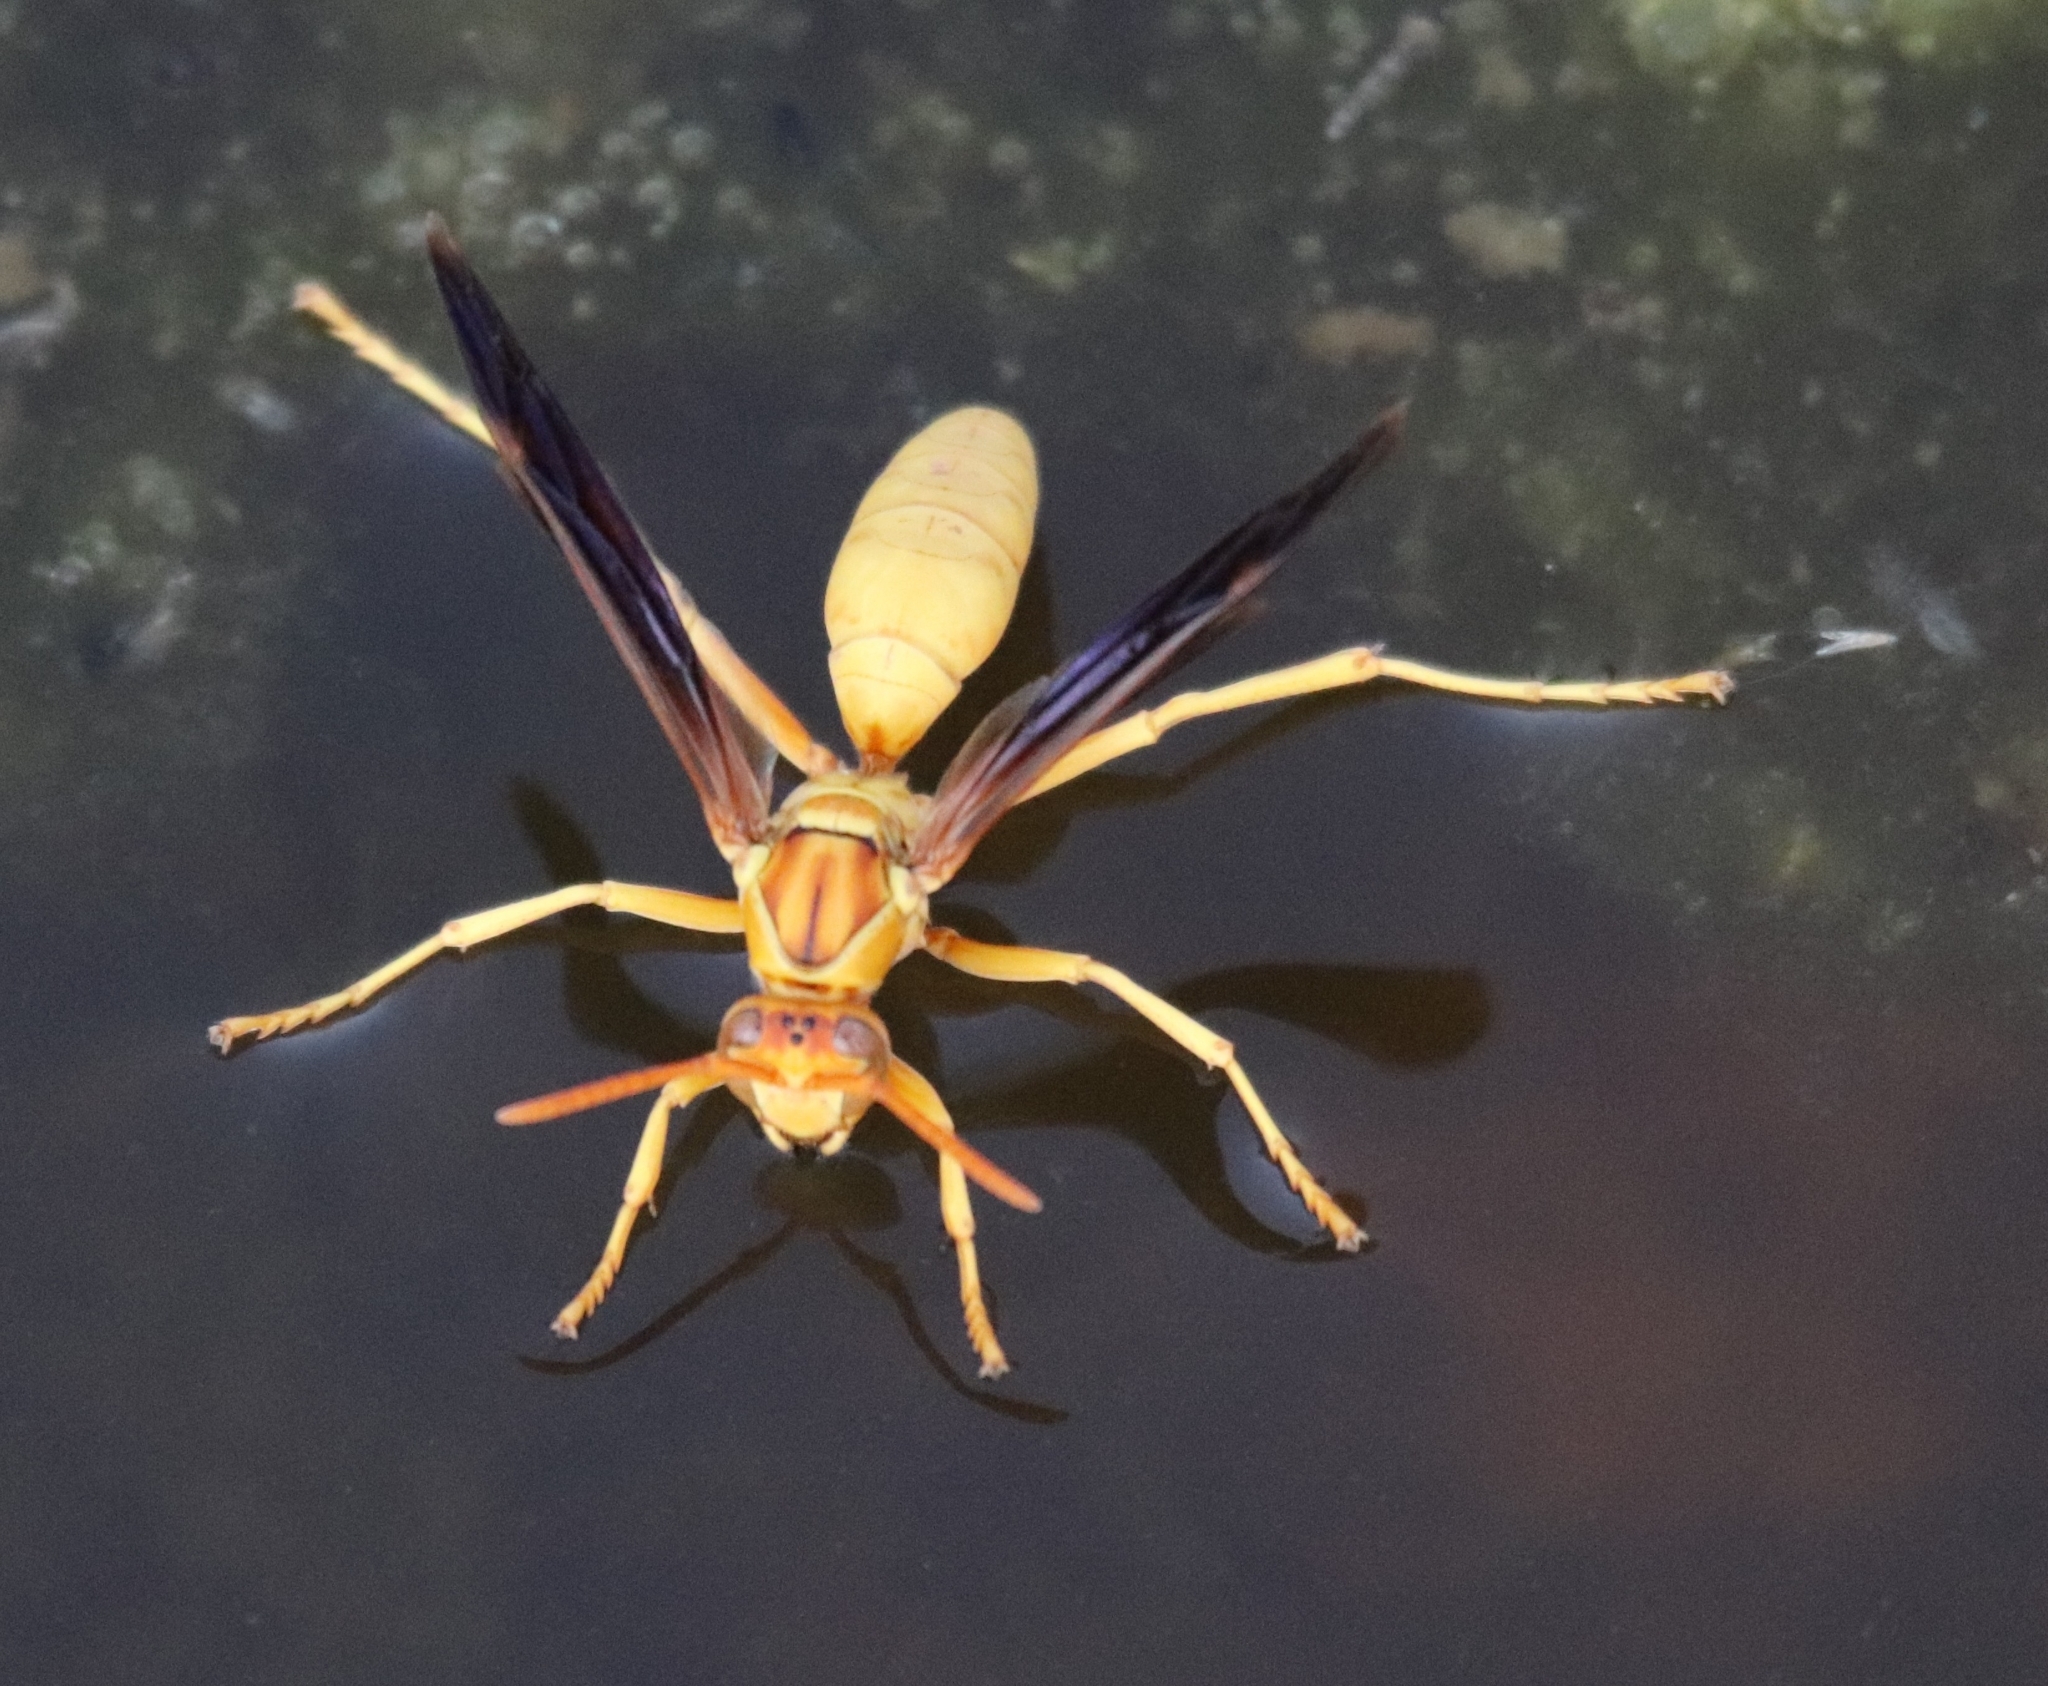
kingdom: Animalia
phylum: Arthropoda
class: Insecta
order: Hymenoptera
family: Eumenidae
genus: Polistes
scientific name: Polistes flavus
